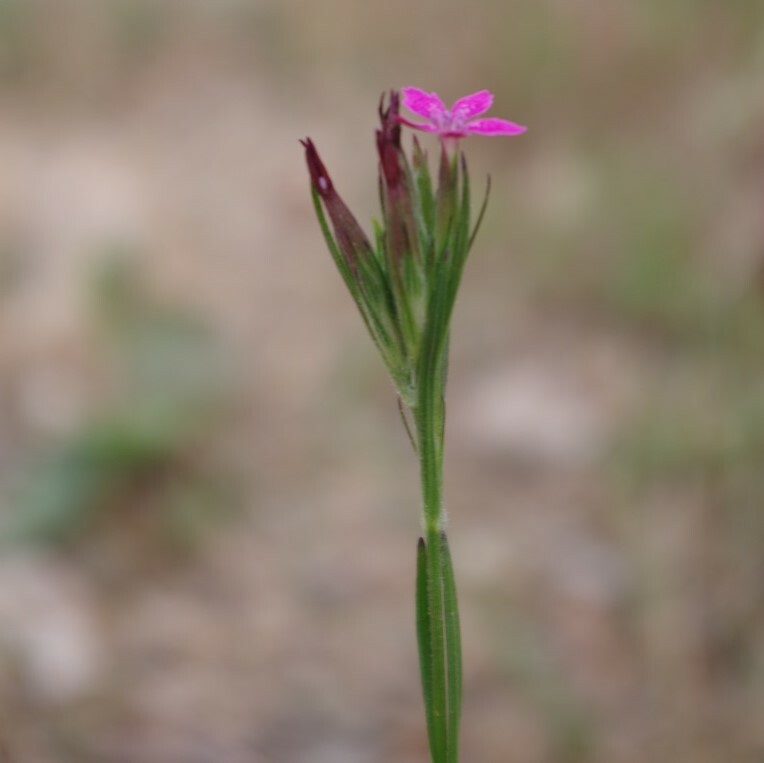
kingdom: Plantae
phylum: Tracheophyta
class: Magnoliopsida
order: Caryophyllales
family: Caryophyllaceae
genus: Dianthus
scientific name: Dianthus armeria
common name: Deptford pink
